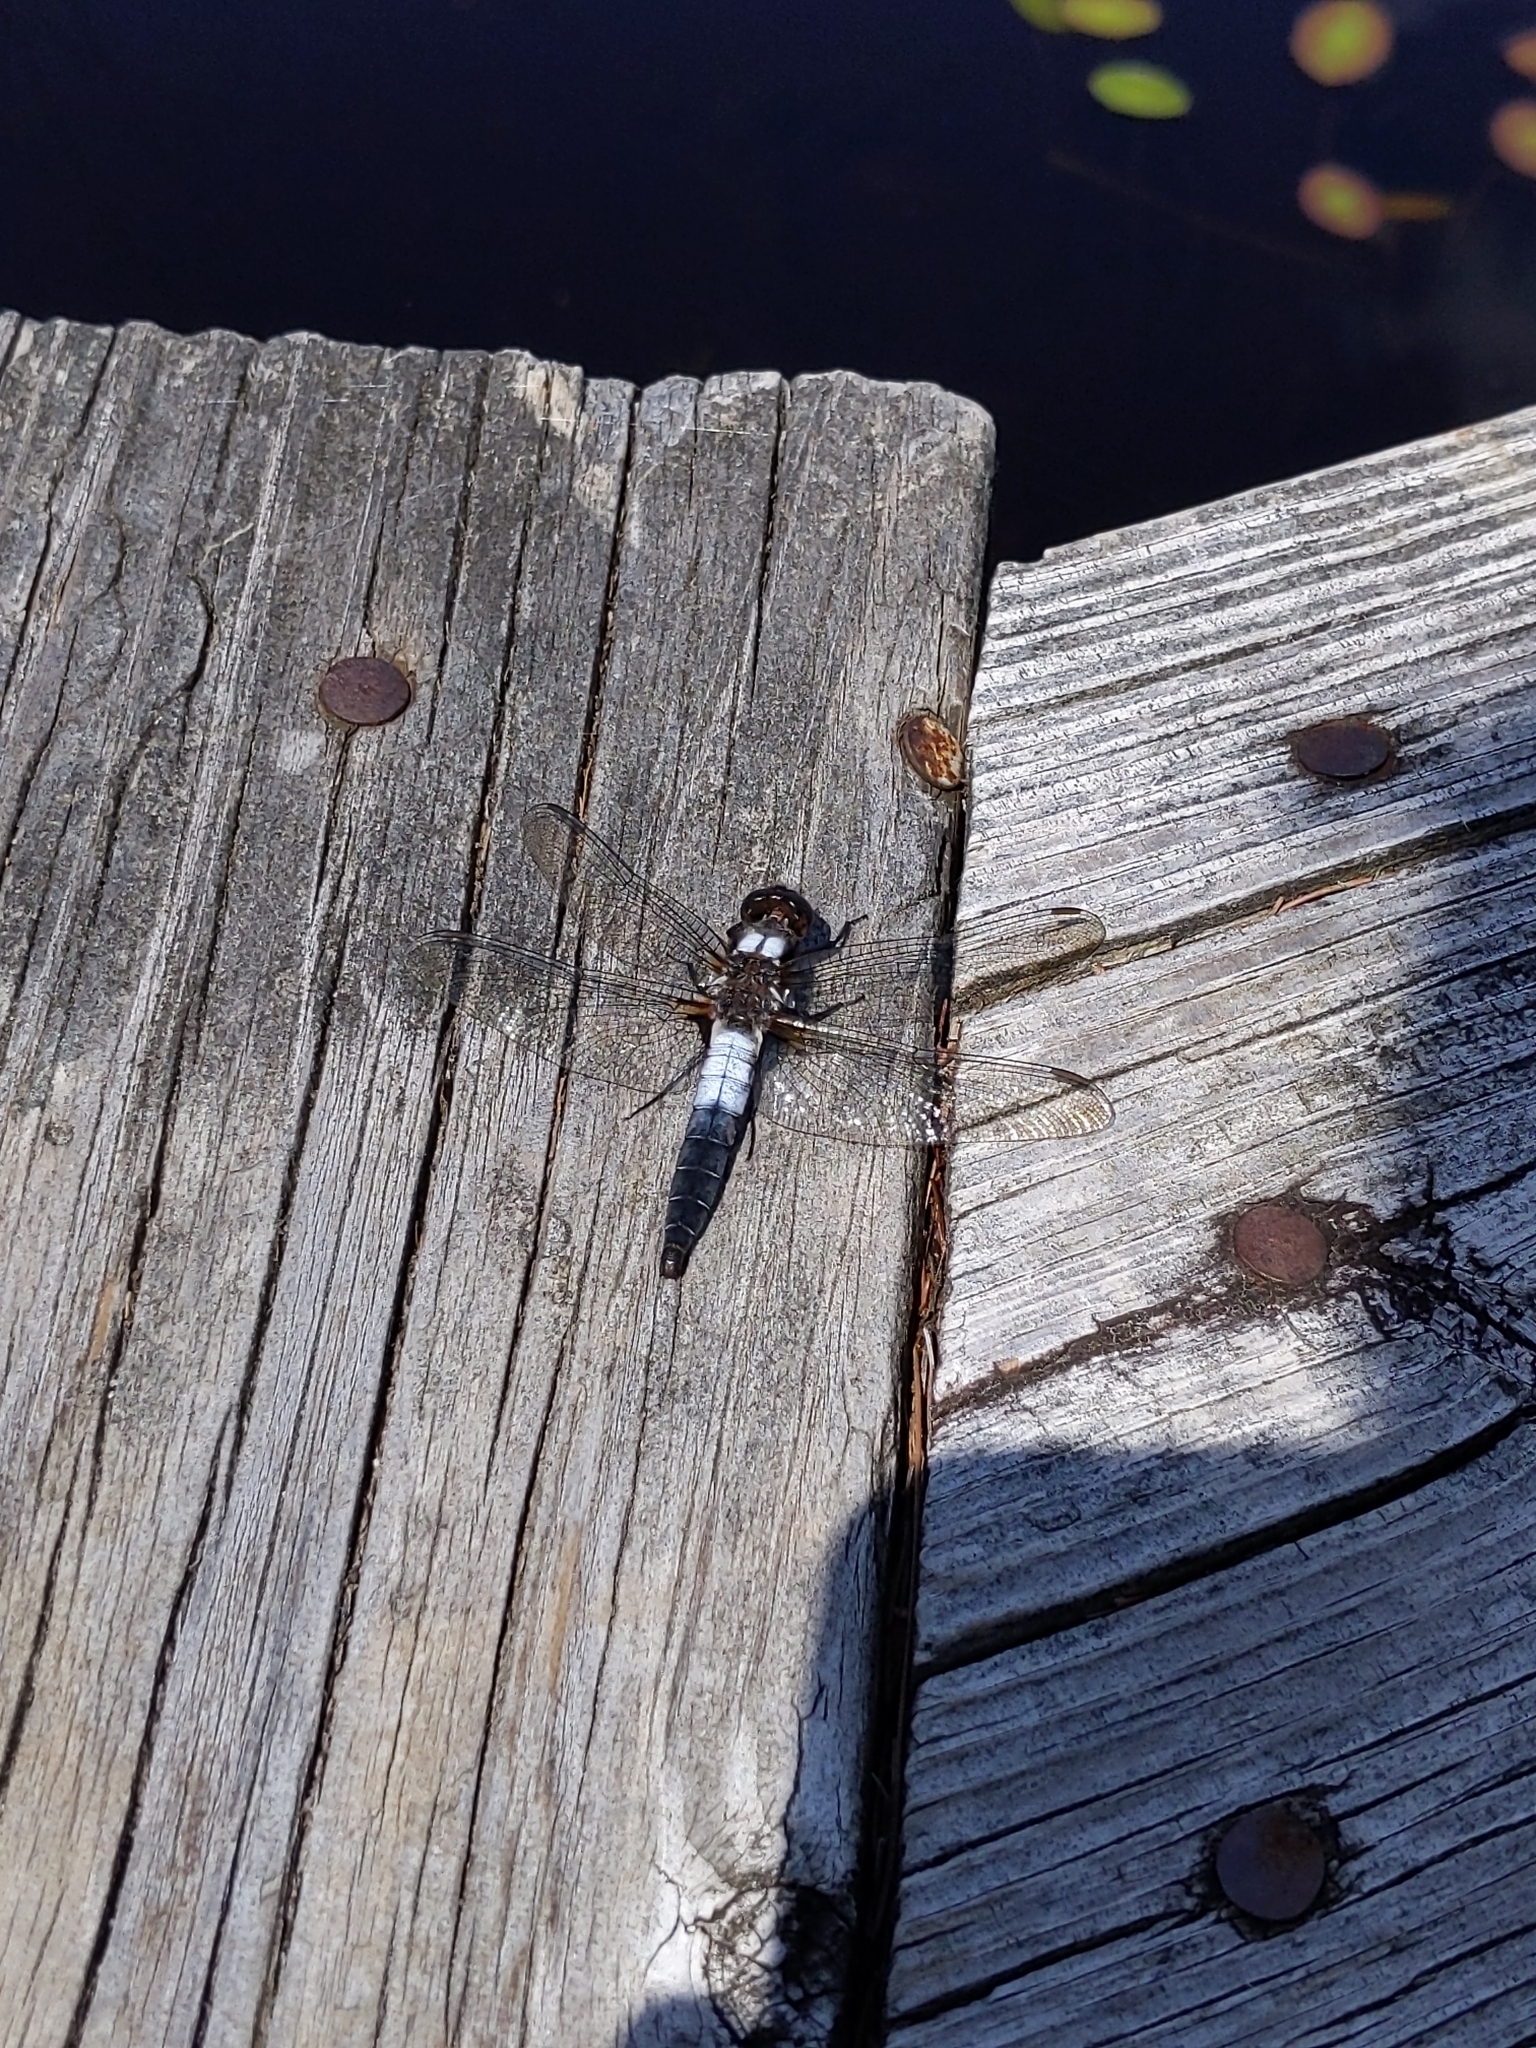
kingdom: Animalia
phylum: Arthropoda
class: Insecta
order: Odonata
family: Libellulidae
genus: Ladona
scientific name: Ladona julia
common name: Chalk-fronted corporal
